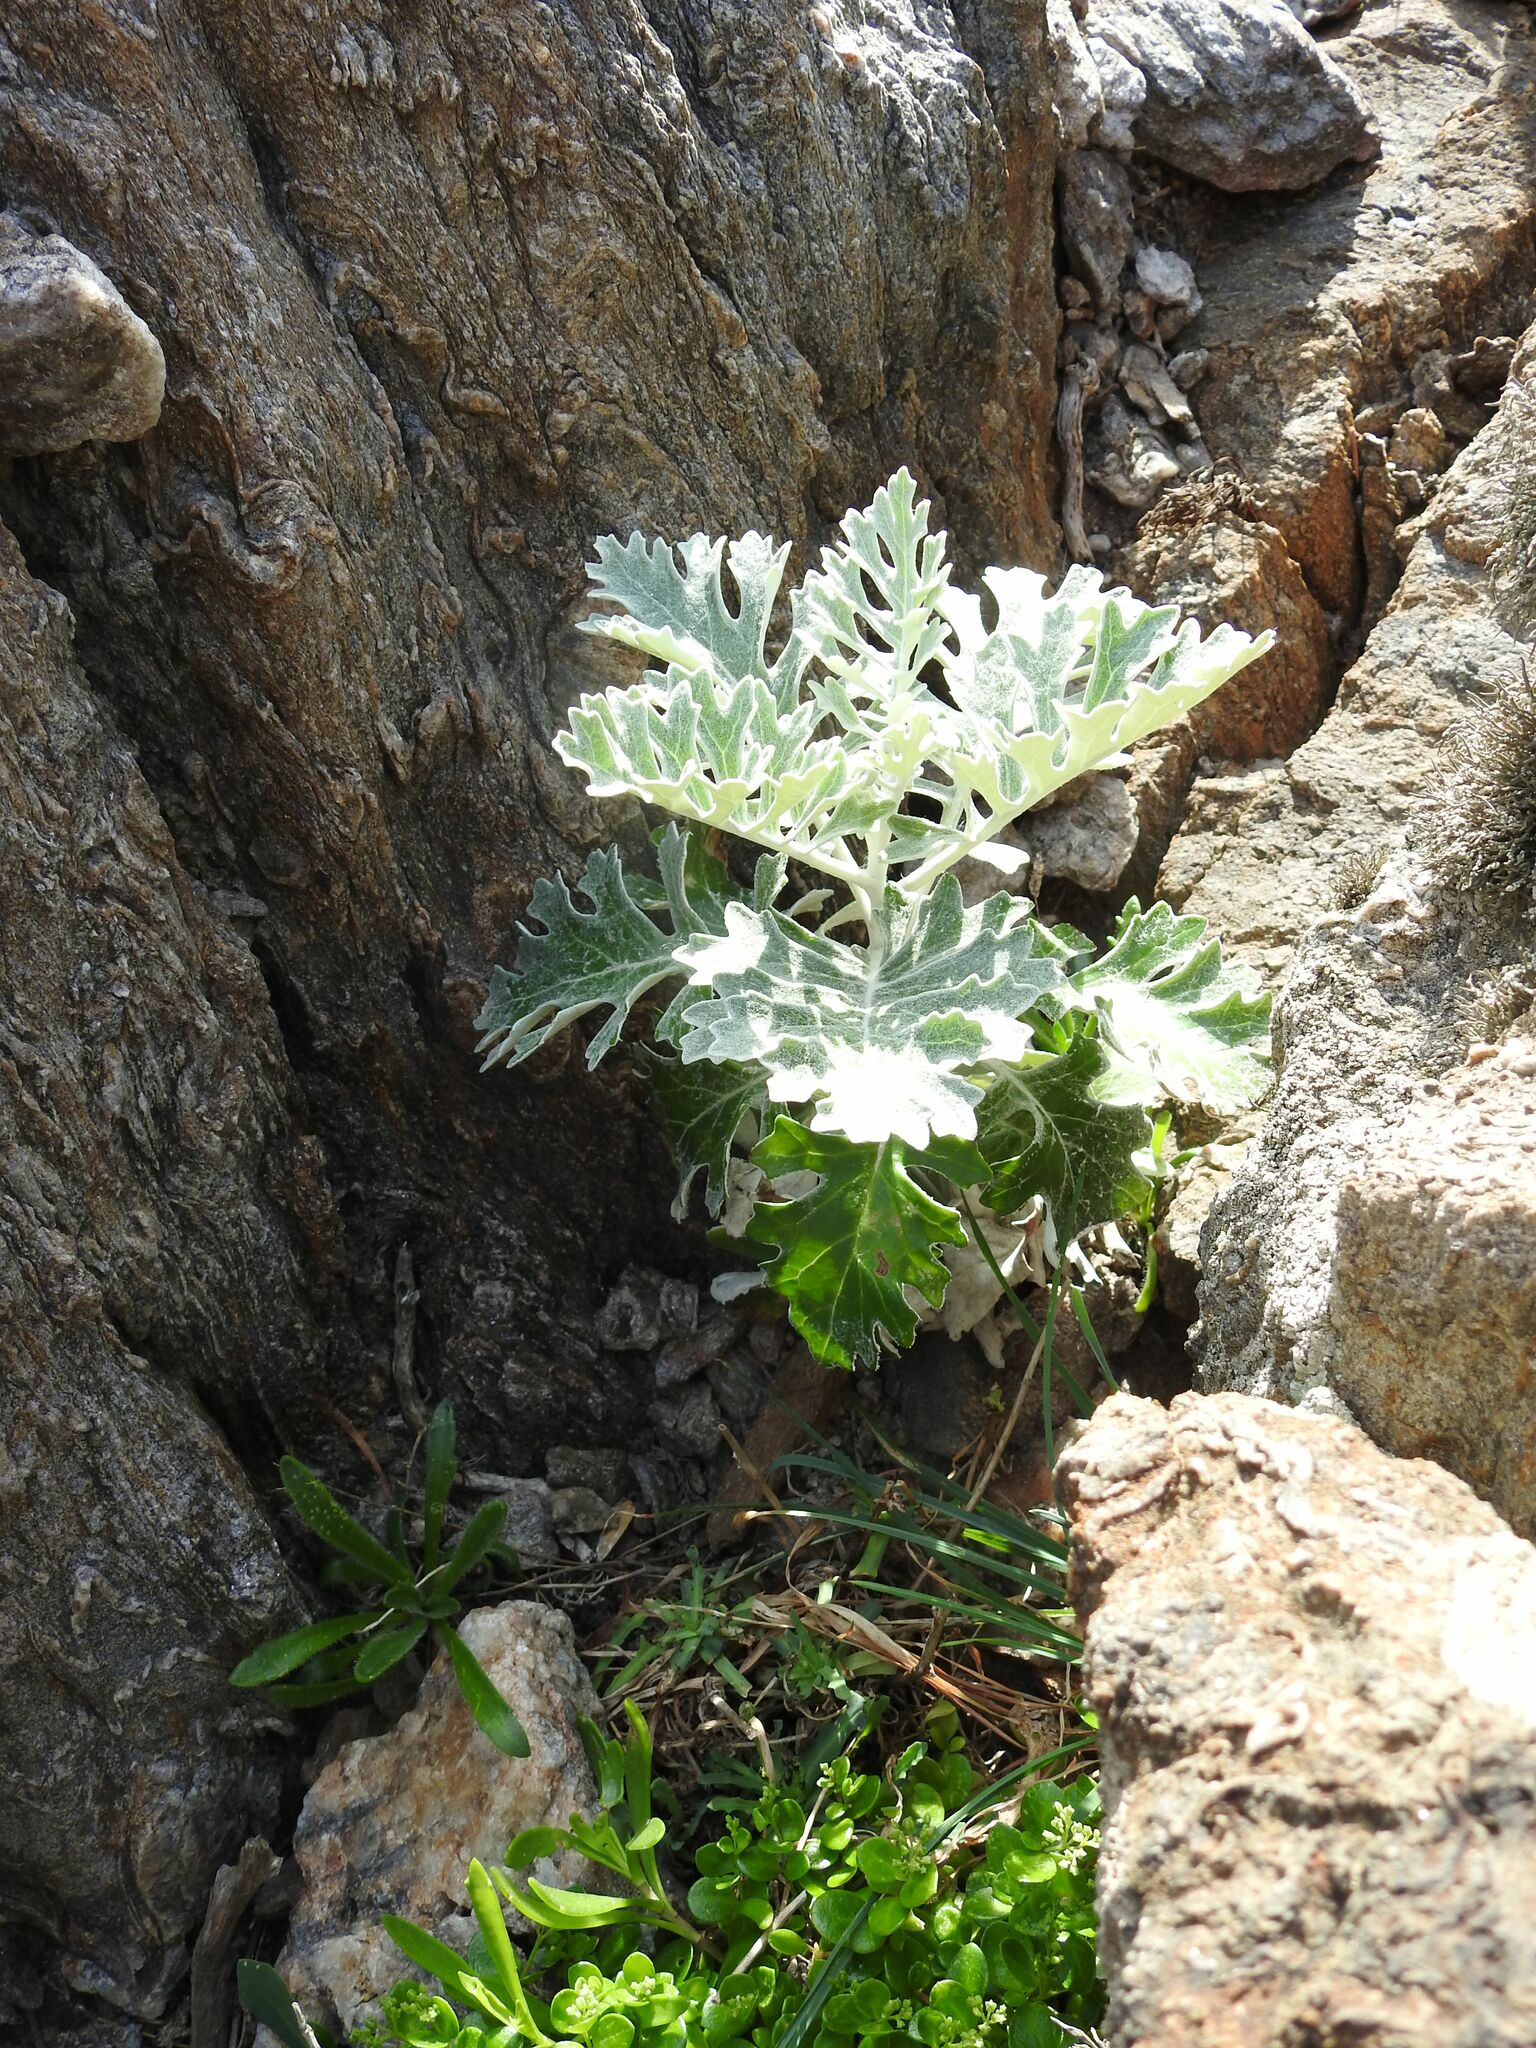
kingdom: Plantae
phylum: Tracheophyta
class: Magnoliopsida
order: Asterales
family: Asteraceae
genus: Jacobaea
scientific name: Jacobaea maritima
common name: Silver ragwort
